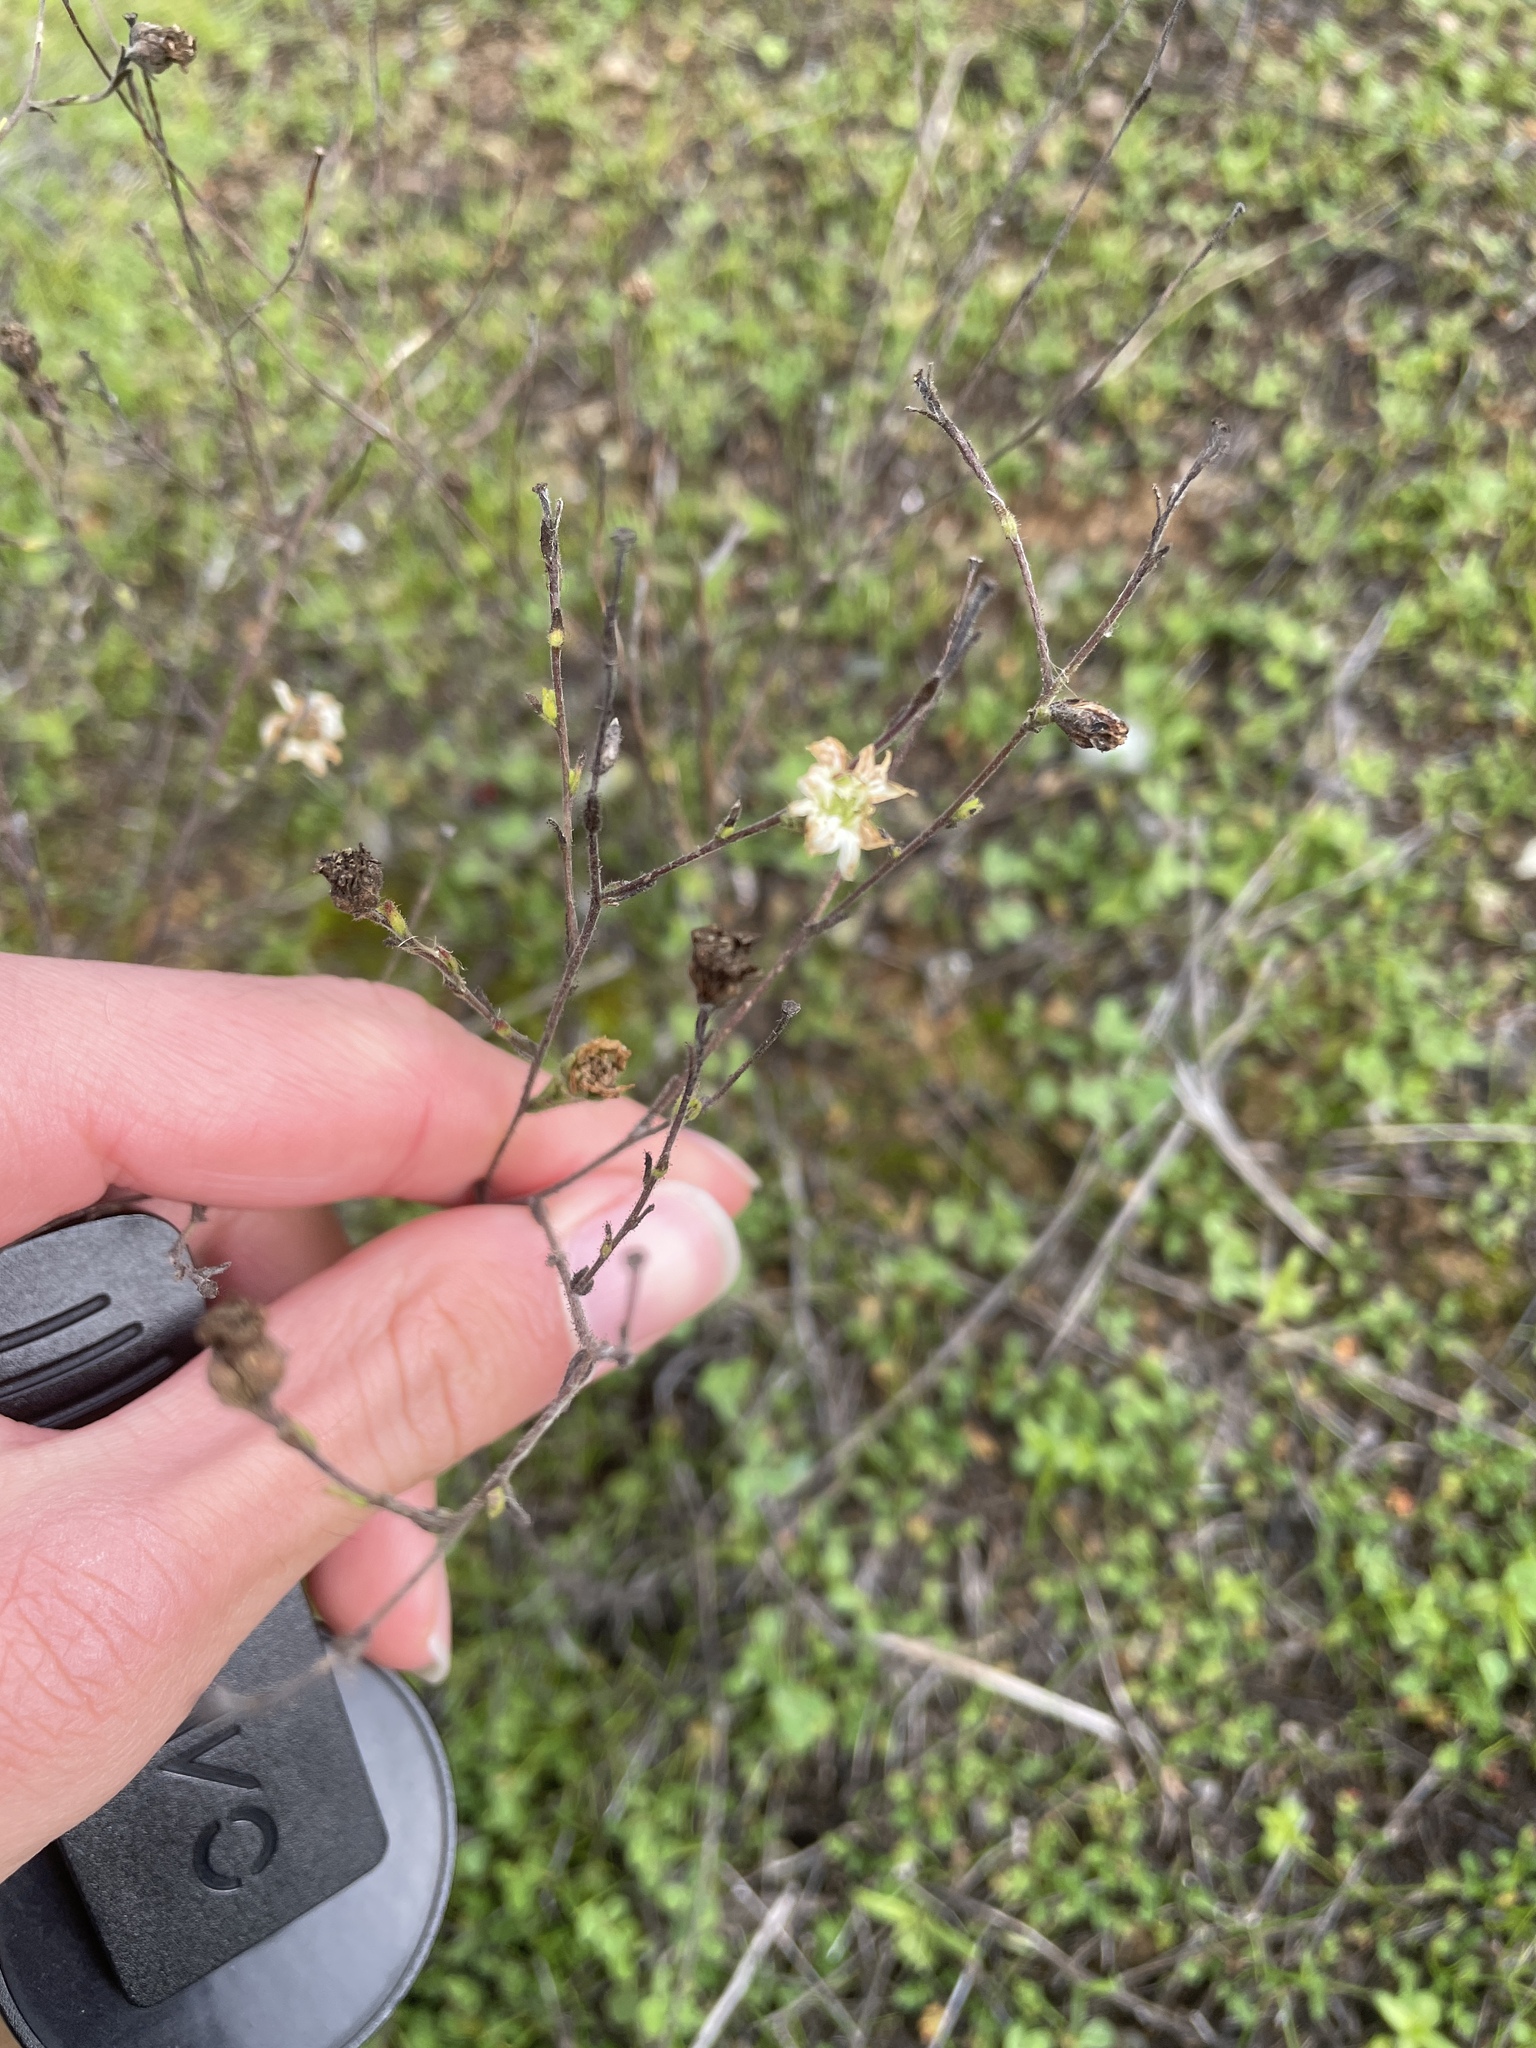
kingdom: Plantae
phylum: Tracheophyta
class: Magnoliopsida
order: Asterales
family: Asteraceae
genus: Hemizonia
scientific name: Hemizonia congesta
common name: Hayfield tarweed
